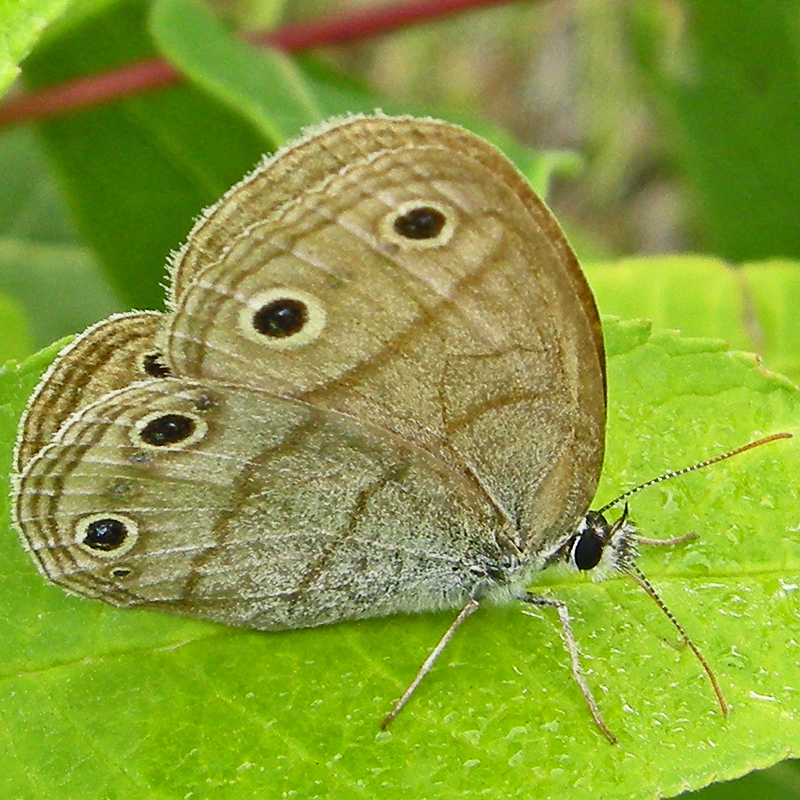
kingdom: Animalia
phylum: Arthropoda
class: Insecta
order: Lepidoptera
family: Nymphalidae
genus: Euptychia
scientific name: Euptychia cymela
